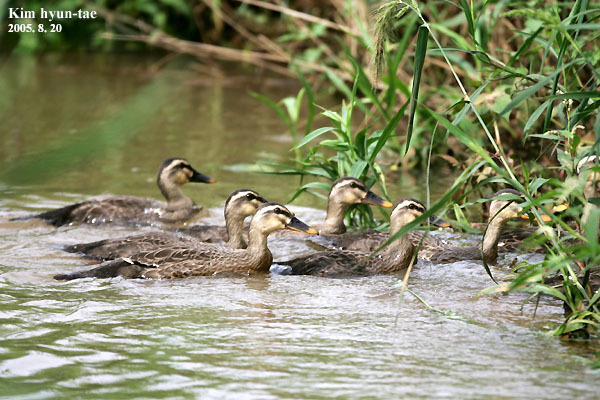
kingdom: Animalia
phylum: Chordata
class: Aves
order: Anseriformes
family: Anatidae
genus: Anas
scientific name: Anas zonorhyncha
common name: Eastern spot-billed duck
